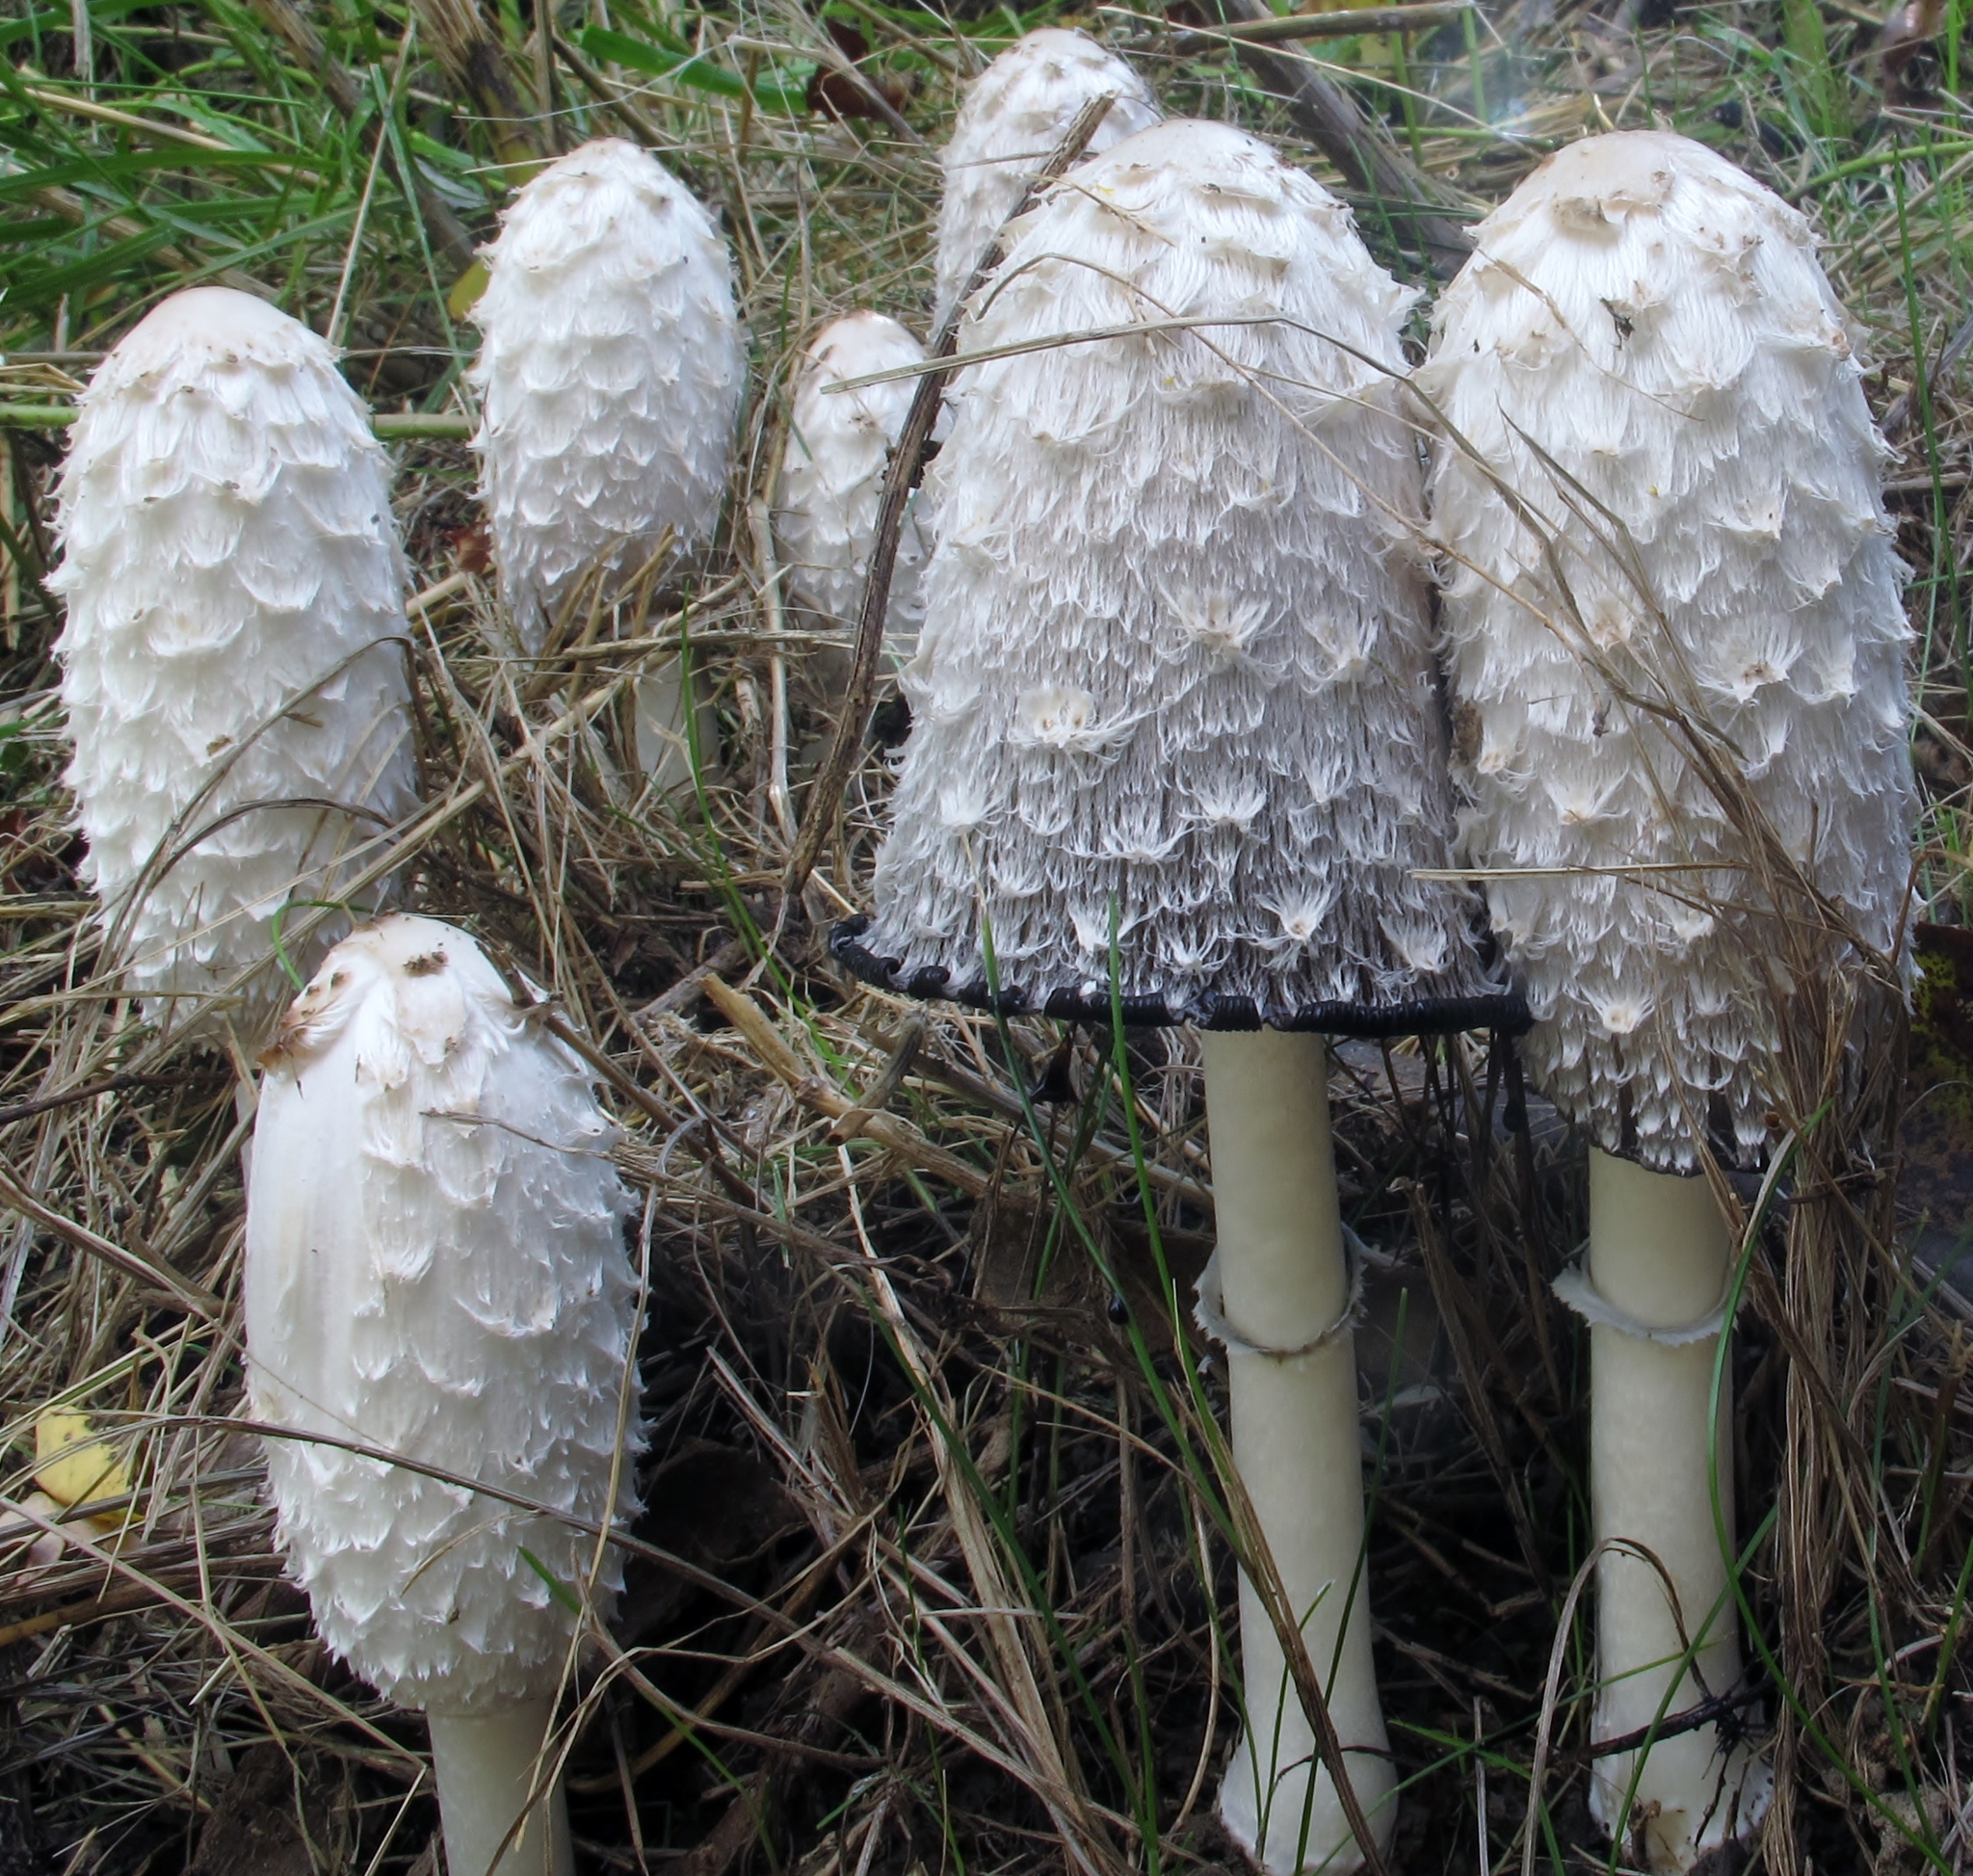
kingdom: Fungi
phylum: Basidiomycota
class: Agaricomycetes
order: Agaricales
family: Agaricaceae
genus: Coprinus
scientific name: Coprinus comatus
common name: Lawyer's wig
